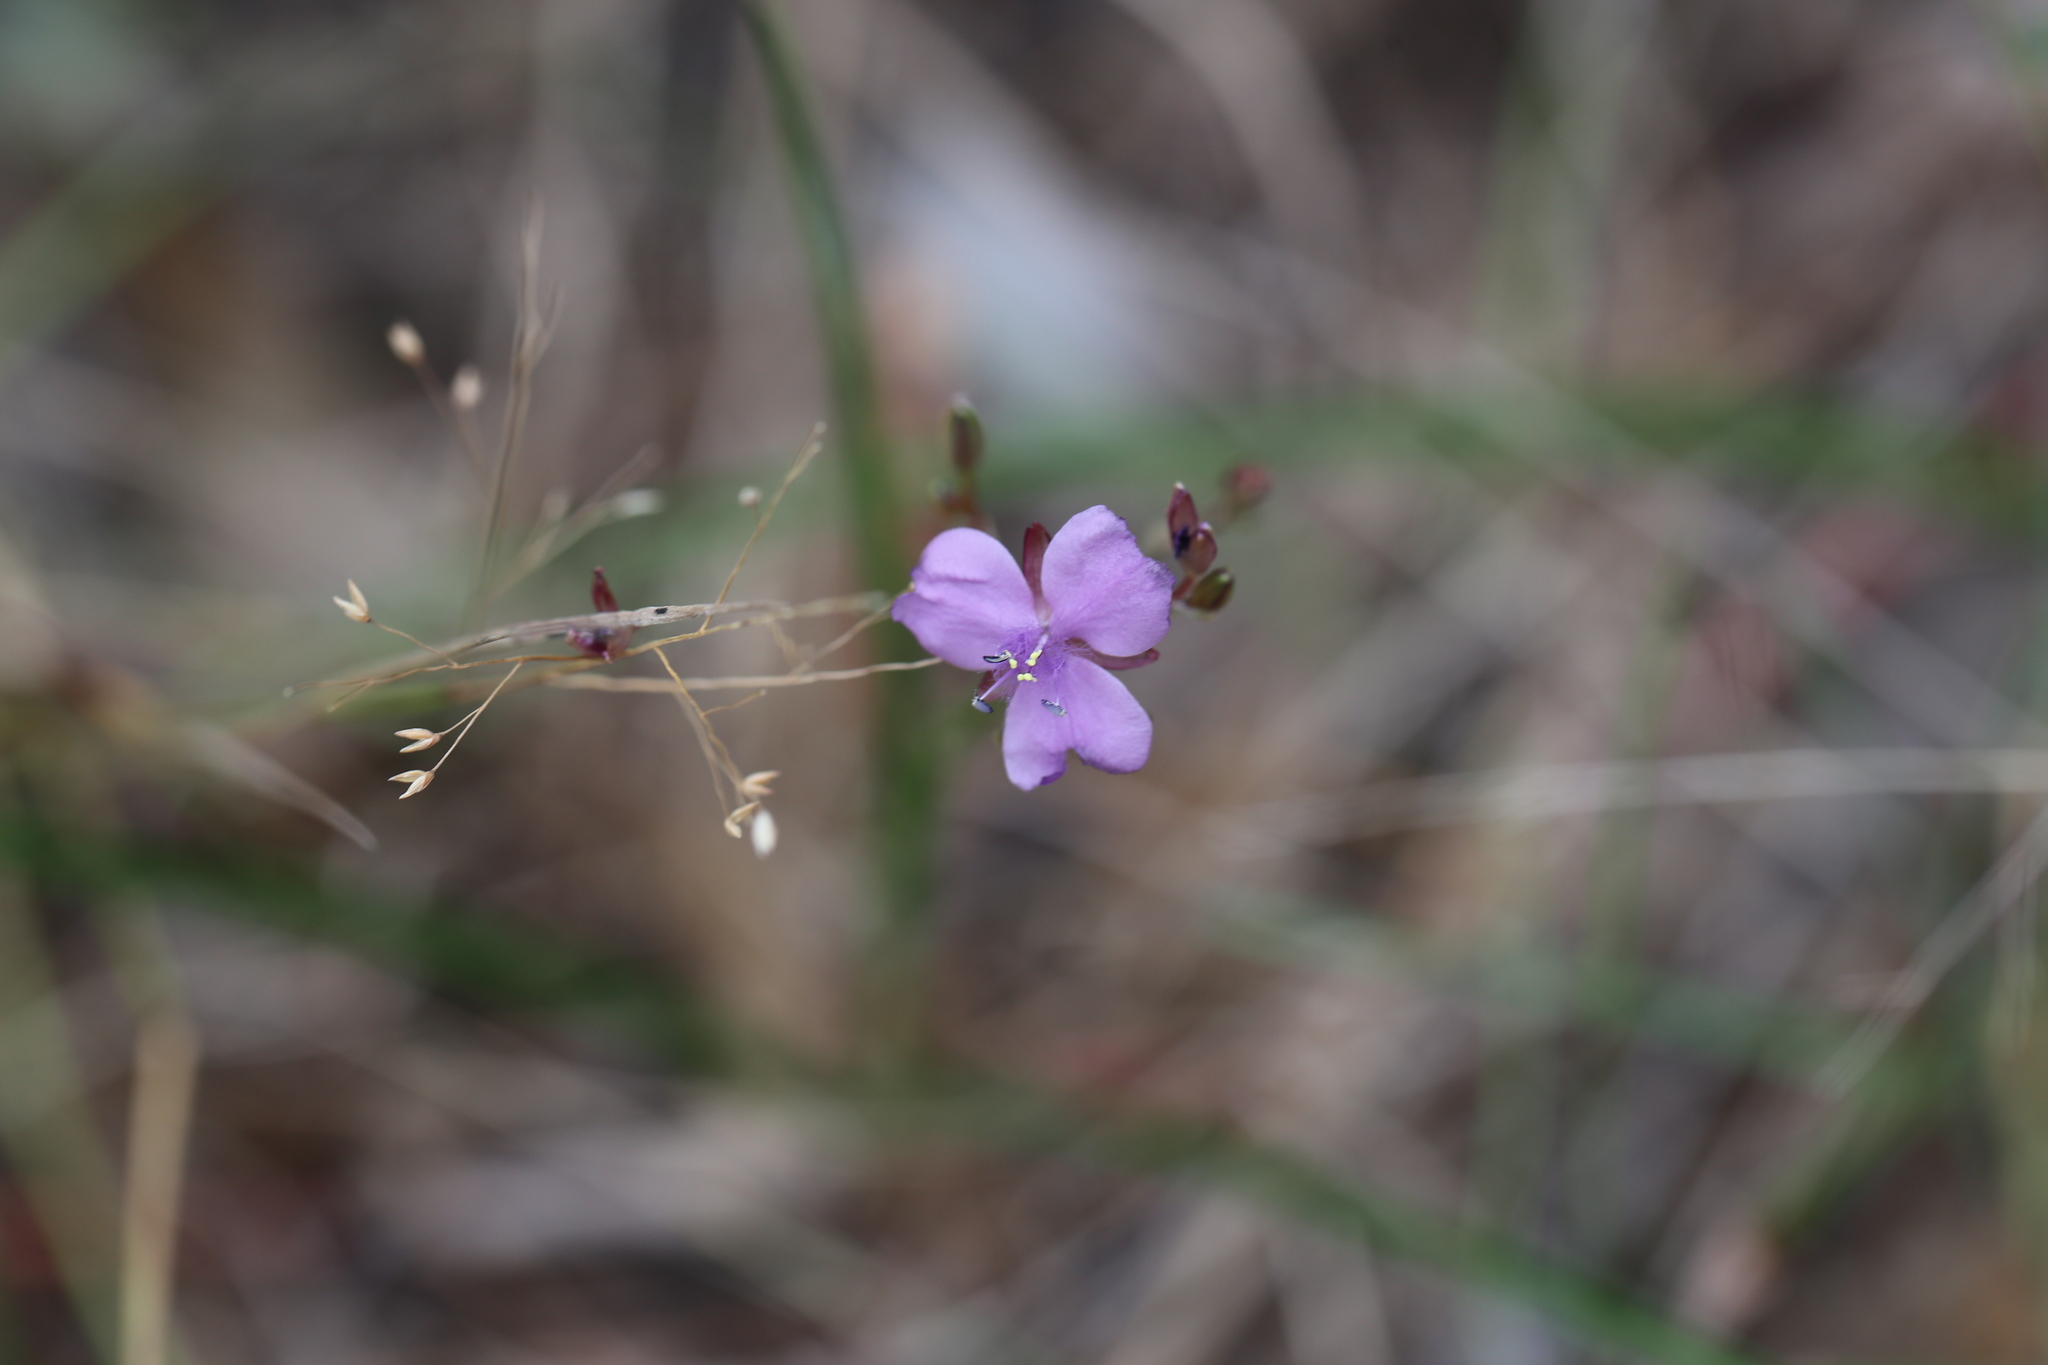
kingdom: Plantae
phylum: Tracheophyta
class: Liliopsida
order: Commelinales
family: Commelinaceae
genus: Murdannia
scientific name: Murdannia graminea
